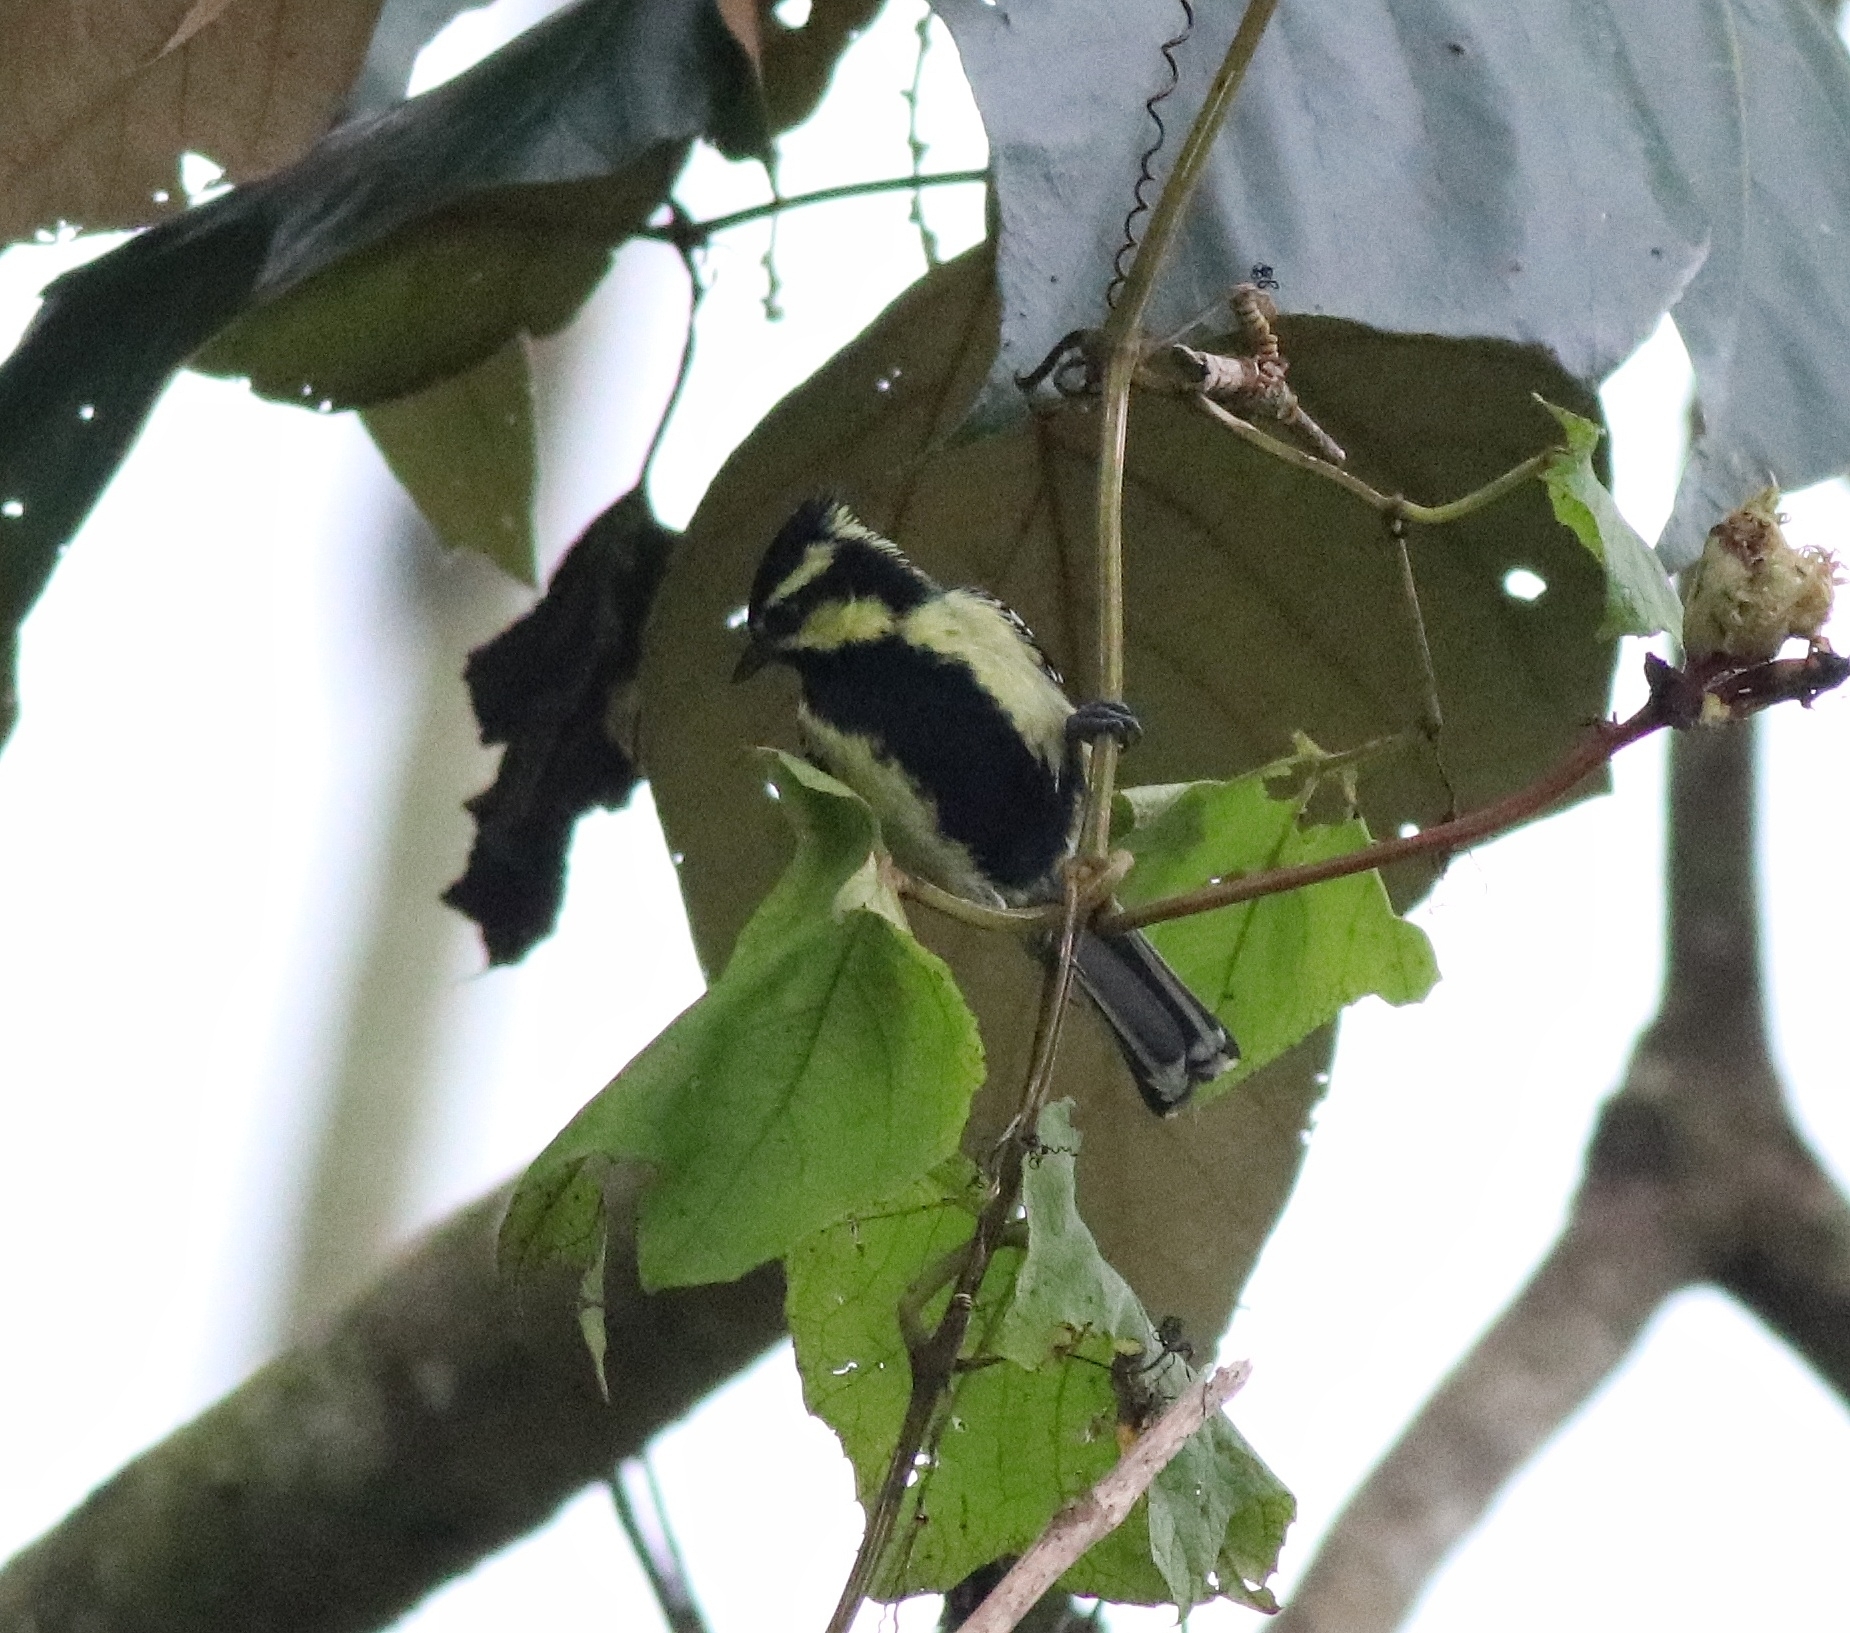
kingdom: Animalia
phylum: Chordata
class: Aves
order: Passeriformes
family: Paridae
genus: Parus
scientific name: Parus aplonotus
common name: Indian black-lored tit
